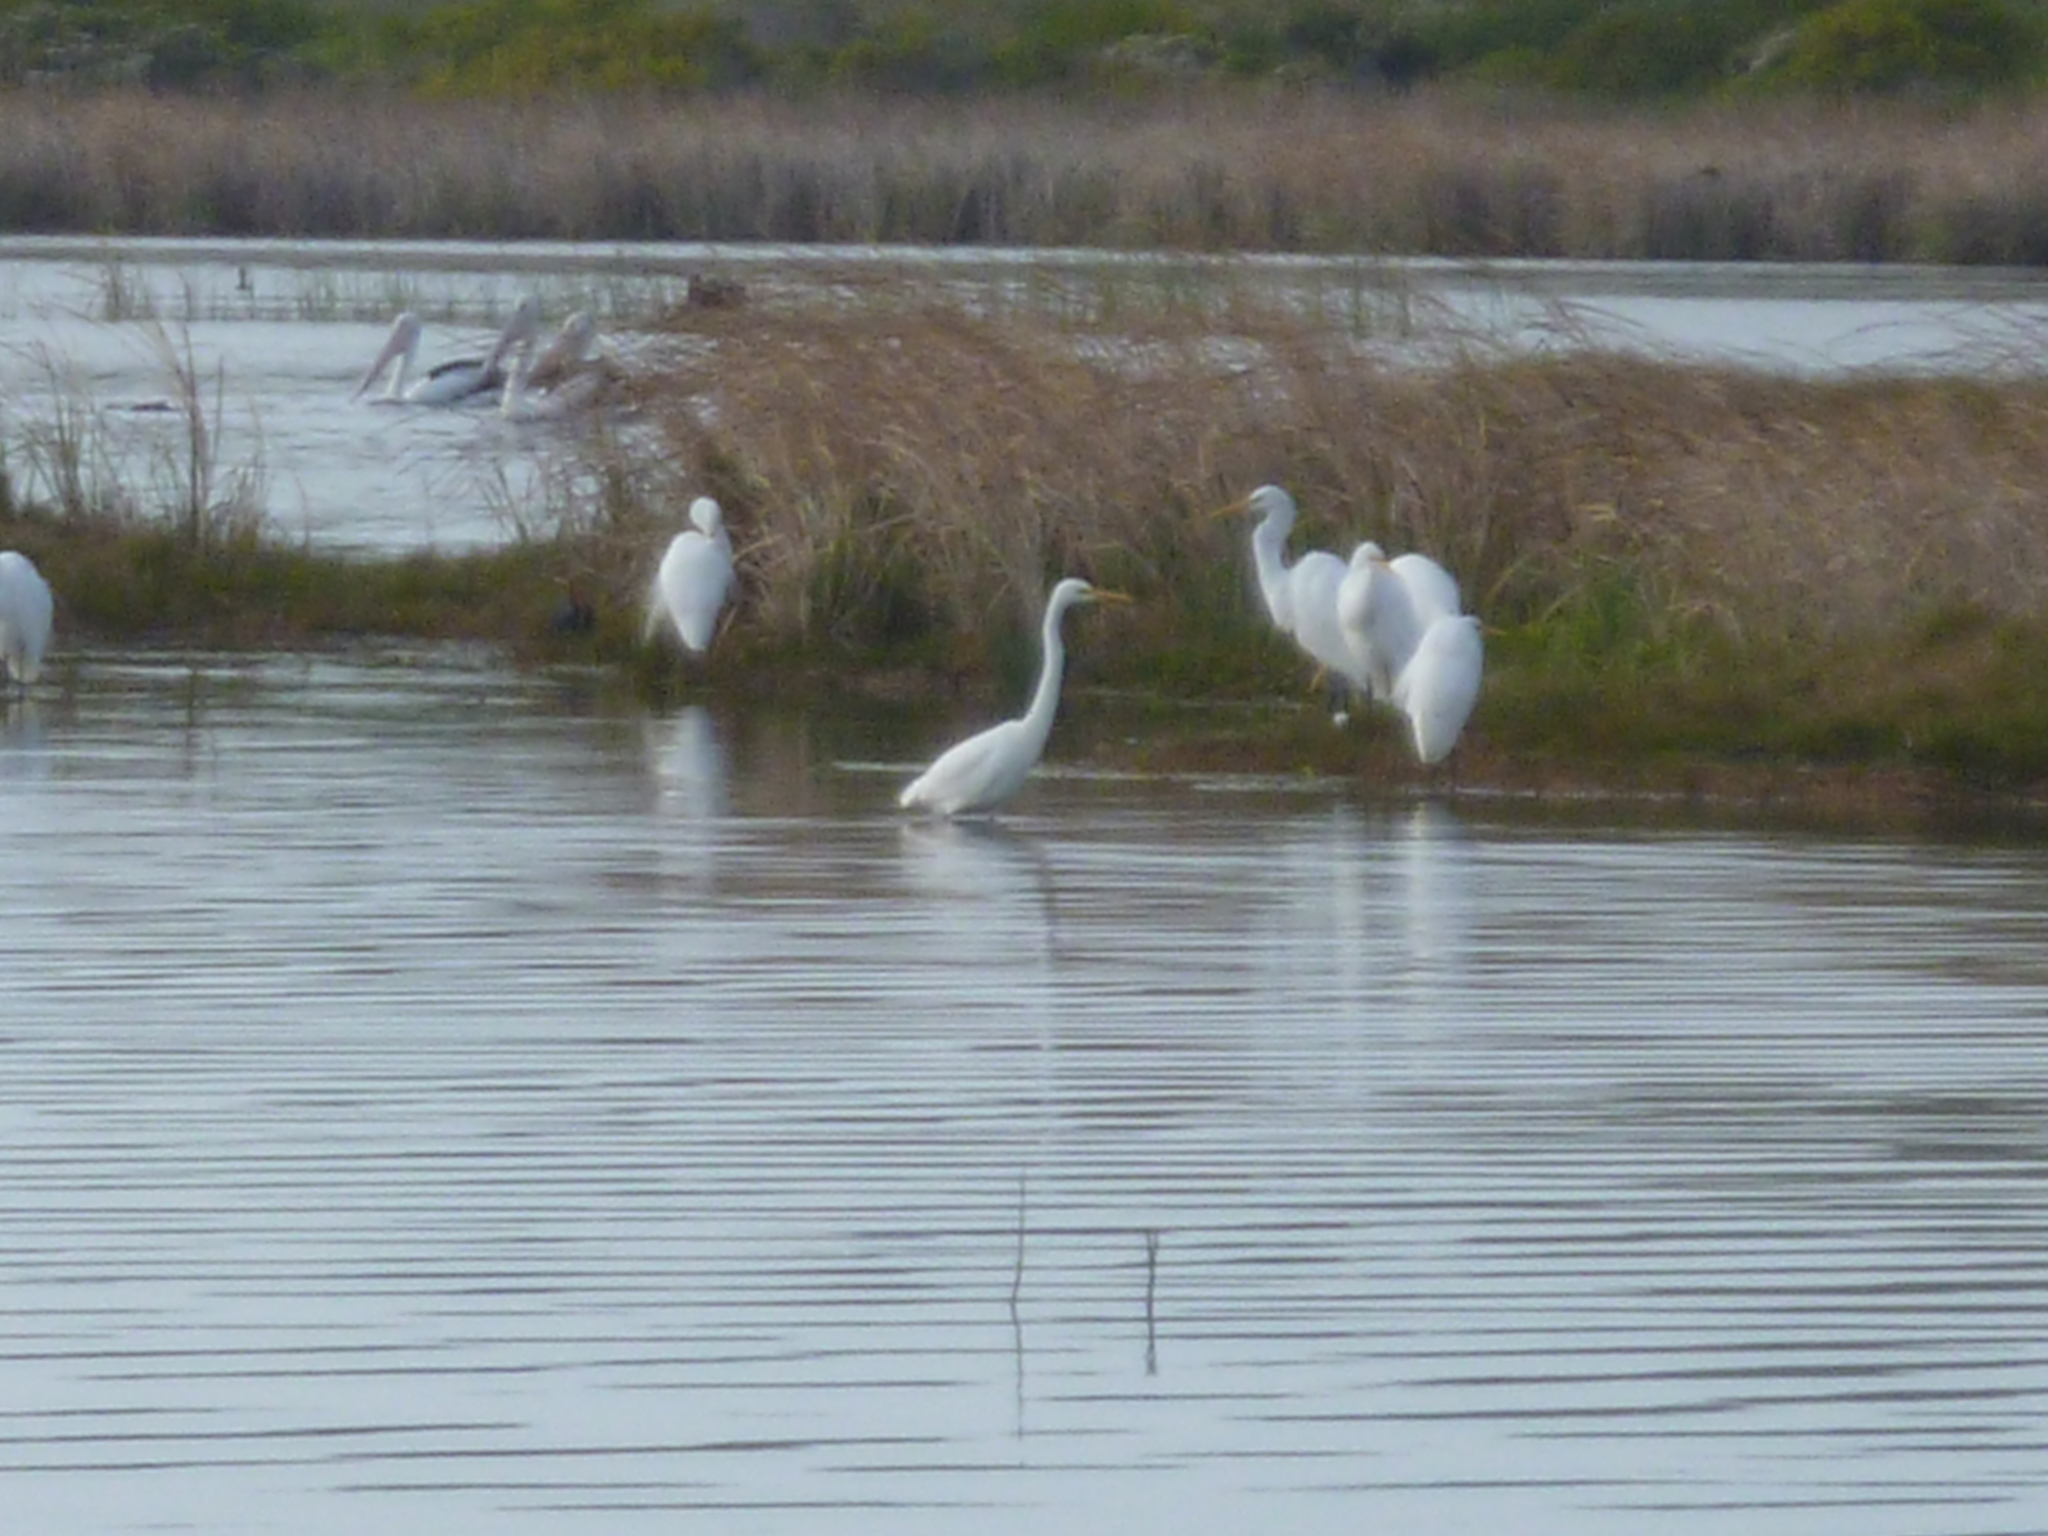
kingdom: Animalia
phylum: Chordata
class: Aves
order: Pelecaniformes
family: Ardeidae
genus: Ardea
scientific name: Ardea alba
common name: Great egret
